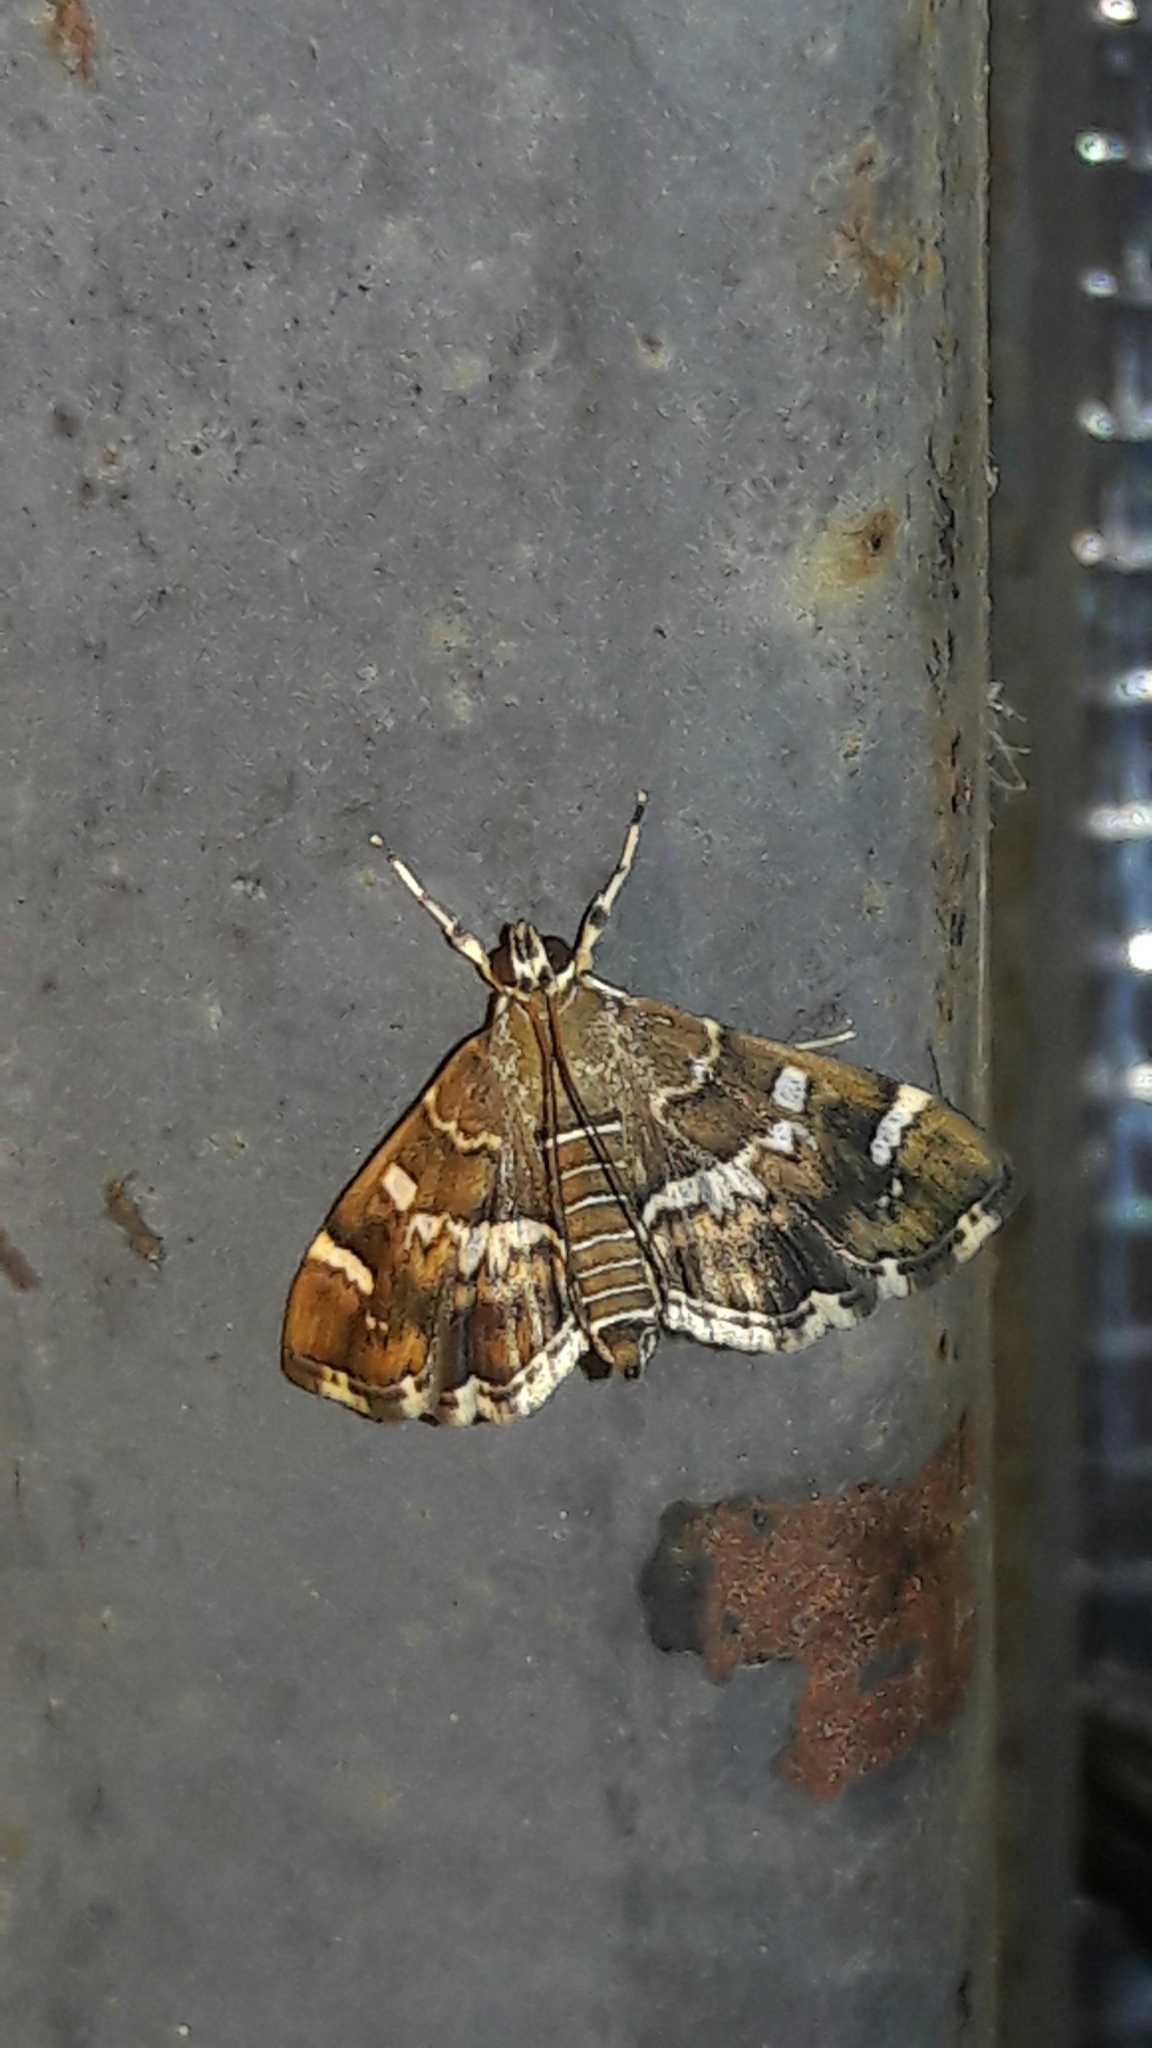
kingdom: Animalia
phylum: Arthropoda
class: Insecta
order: Lepidoptera
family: Crambidae
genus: Hymenia
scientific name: Hymenia perspectalis
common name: Spotted beet webworm
